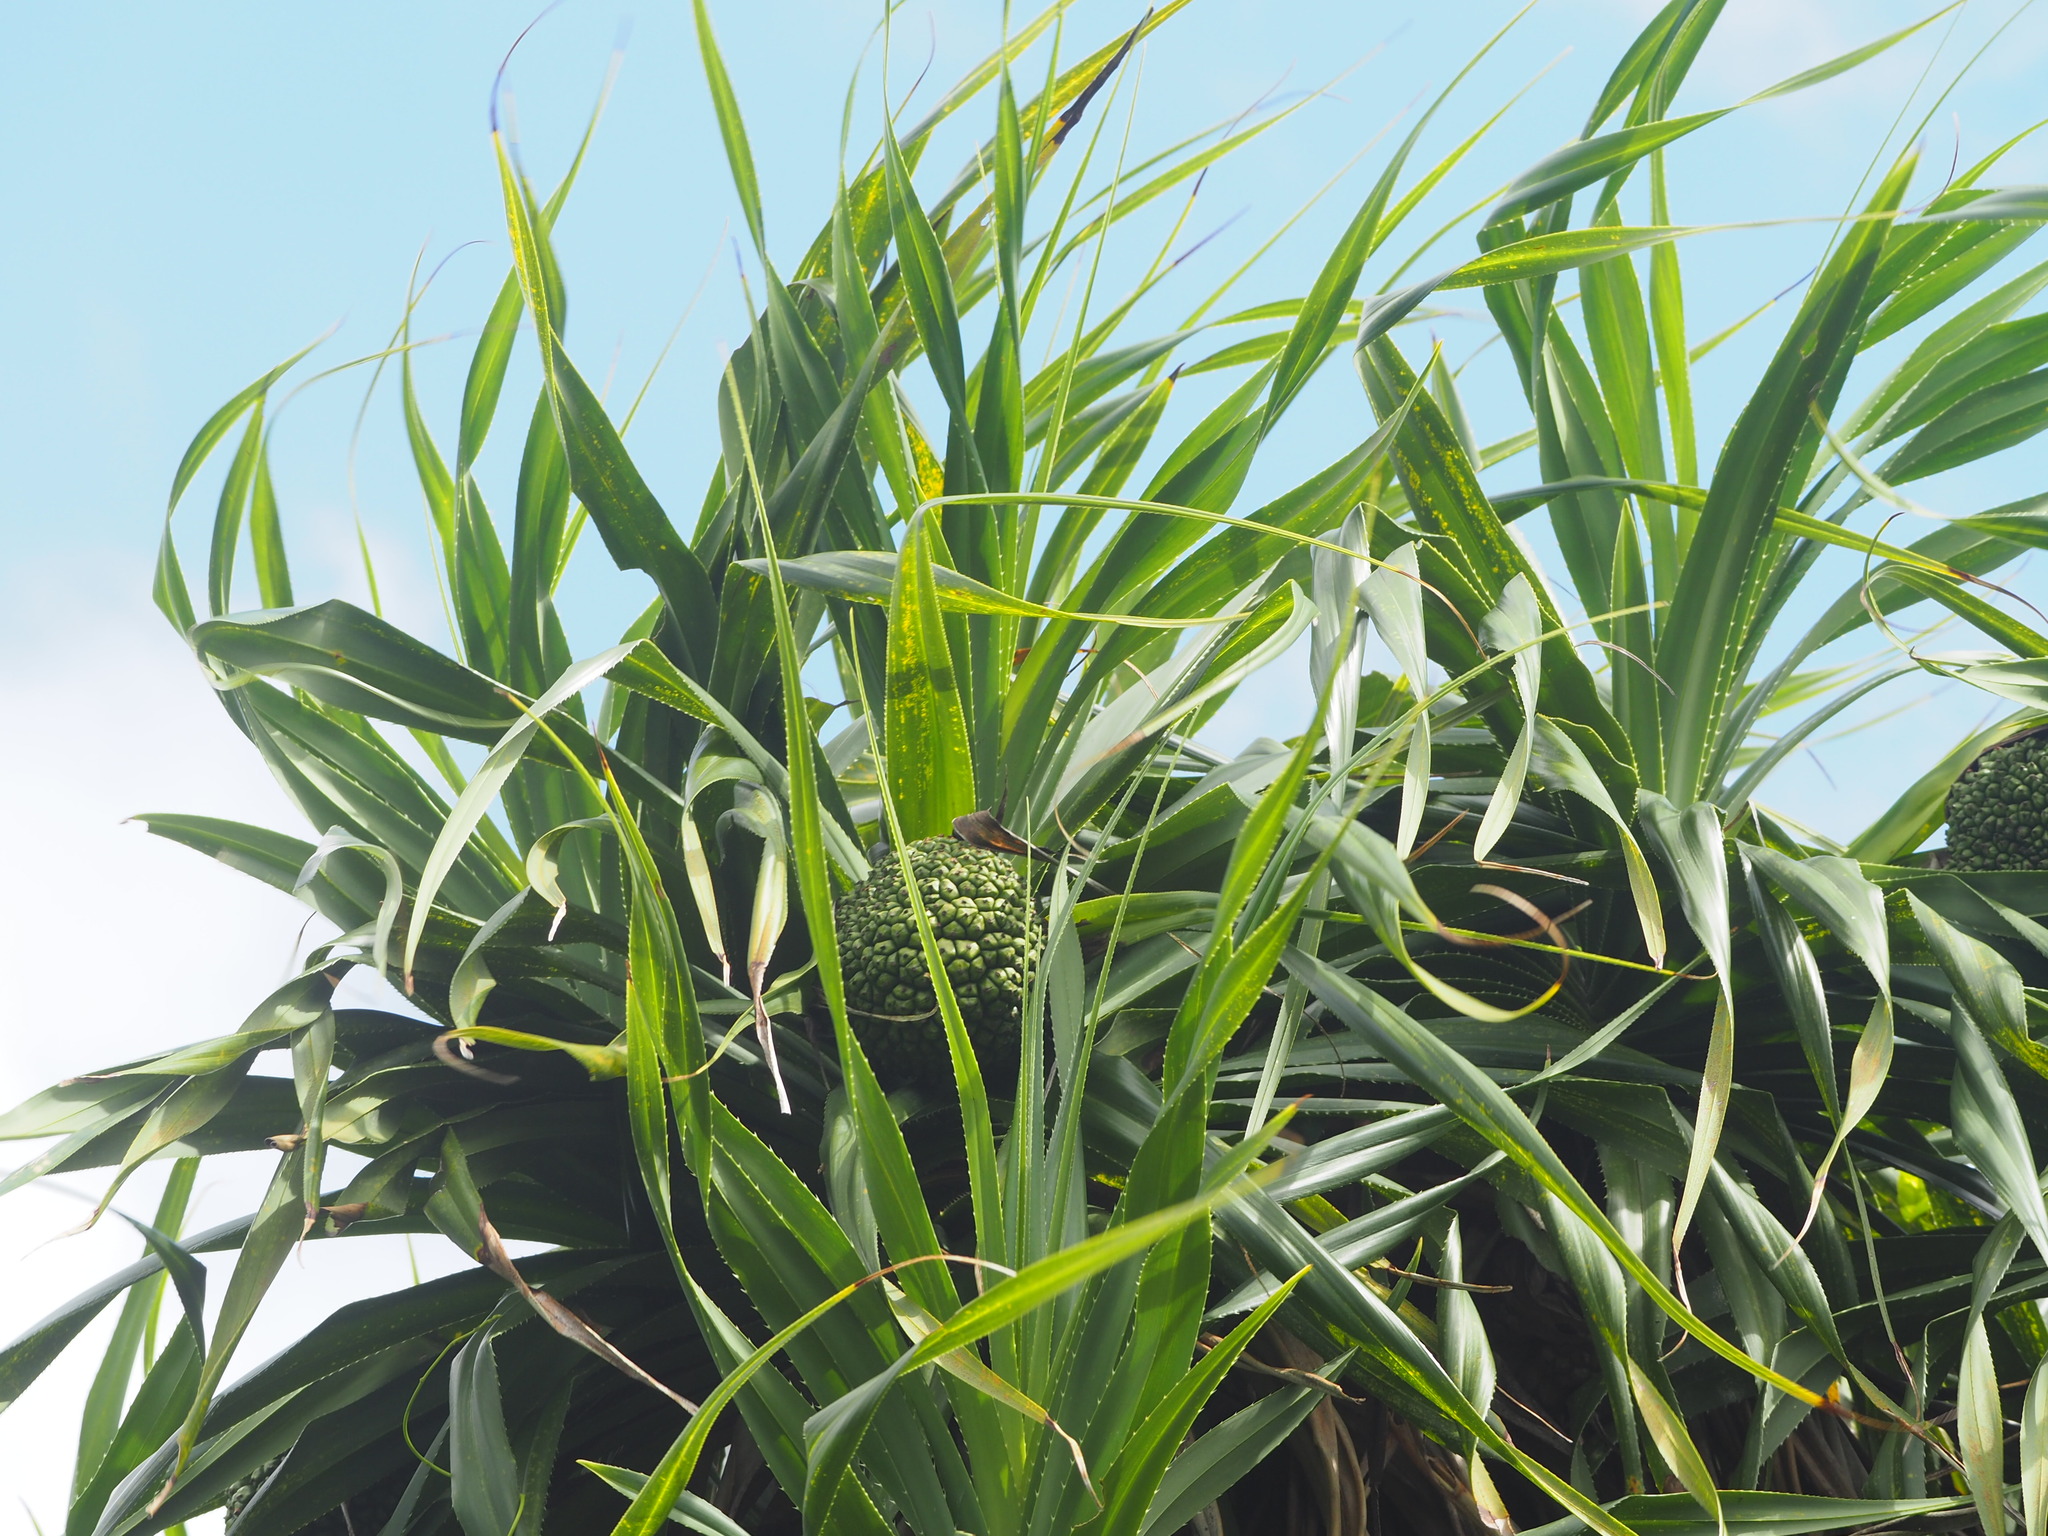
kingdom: Plantae
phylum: Tracheophyta
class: Liliopsida
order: Pandanales
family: Pandanaceae
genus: Pandanus
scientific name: Pandanus odorifer
